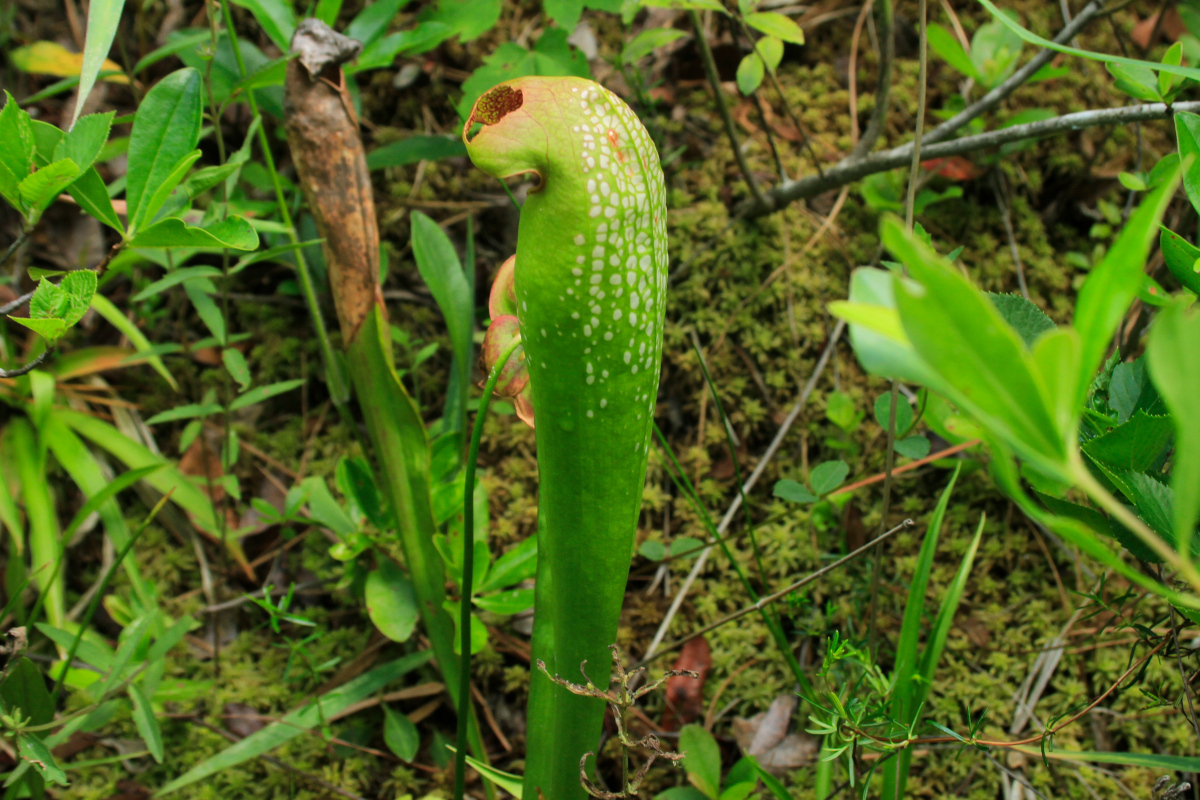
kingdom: Plantae
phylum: Tracheophyta
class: Magnoliopsida
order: Ericales
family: Sarraceniaceae
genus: Sarracenia
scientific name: Sarracenia minor
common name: Rainhat-trumpet
